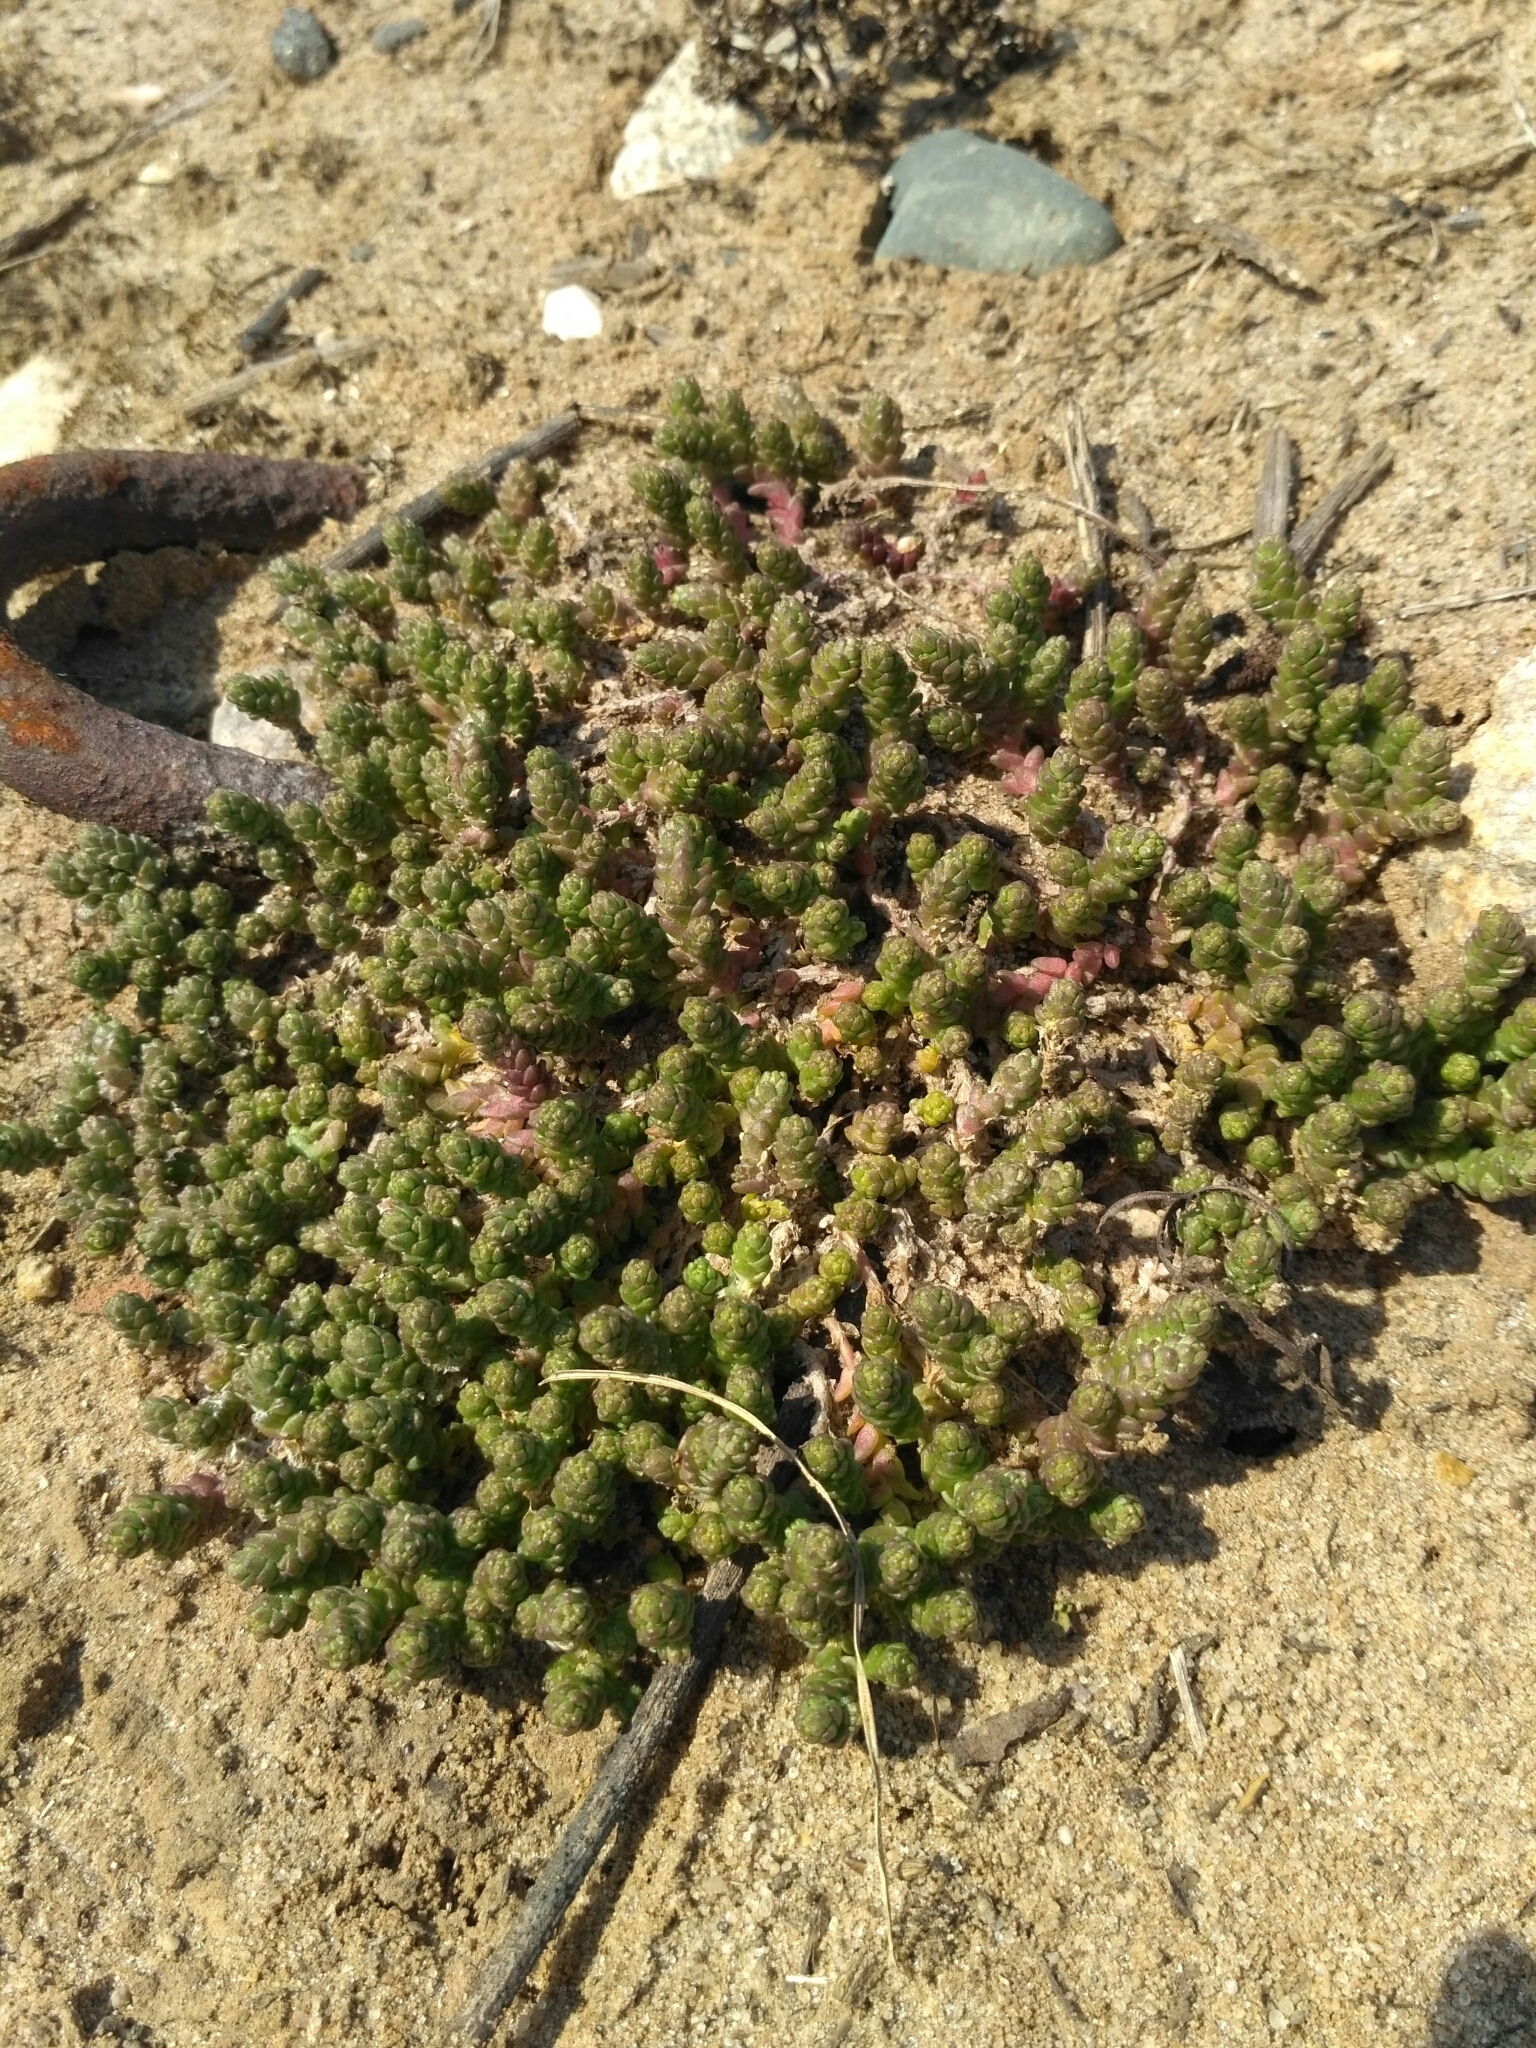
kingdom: Plantae
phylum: Tracheophyta
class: Magnoliopsida
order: Saxifragales
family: Crassulaceae
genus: Sedum
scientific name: Sedum acre
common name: Biting stonecrop
